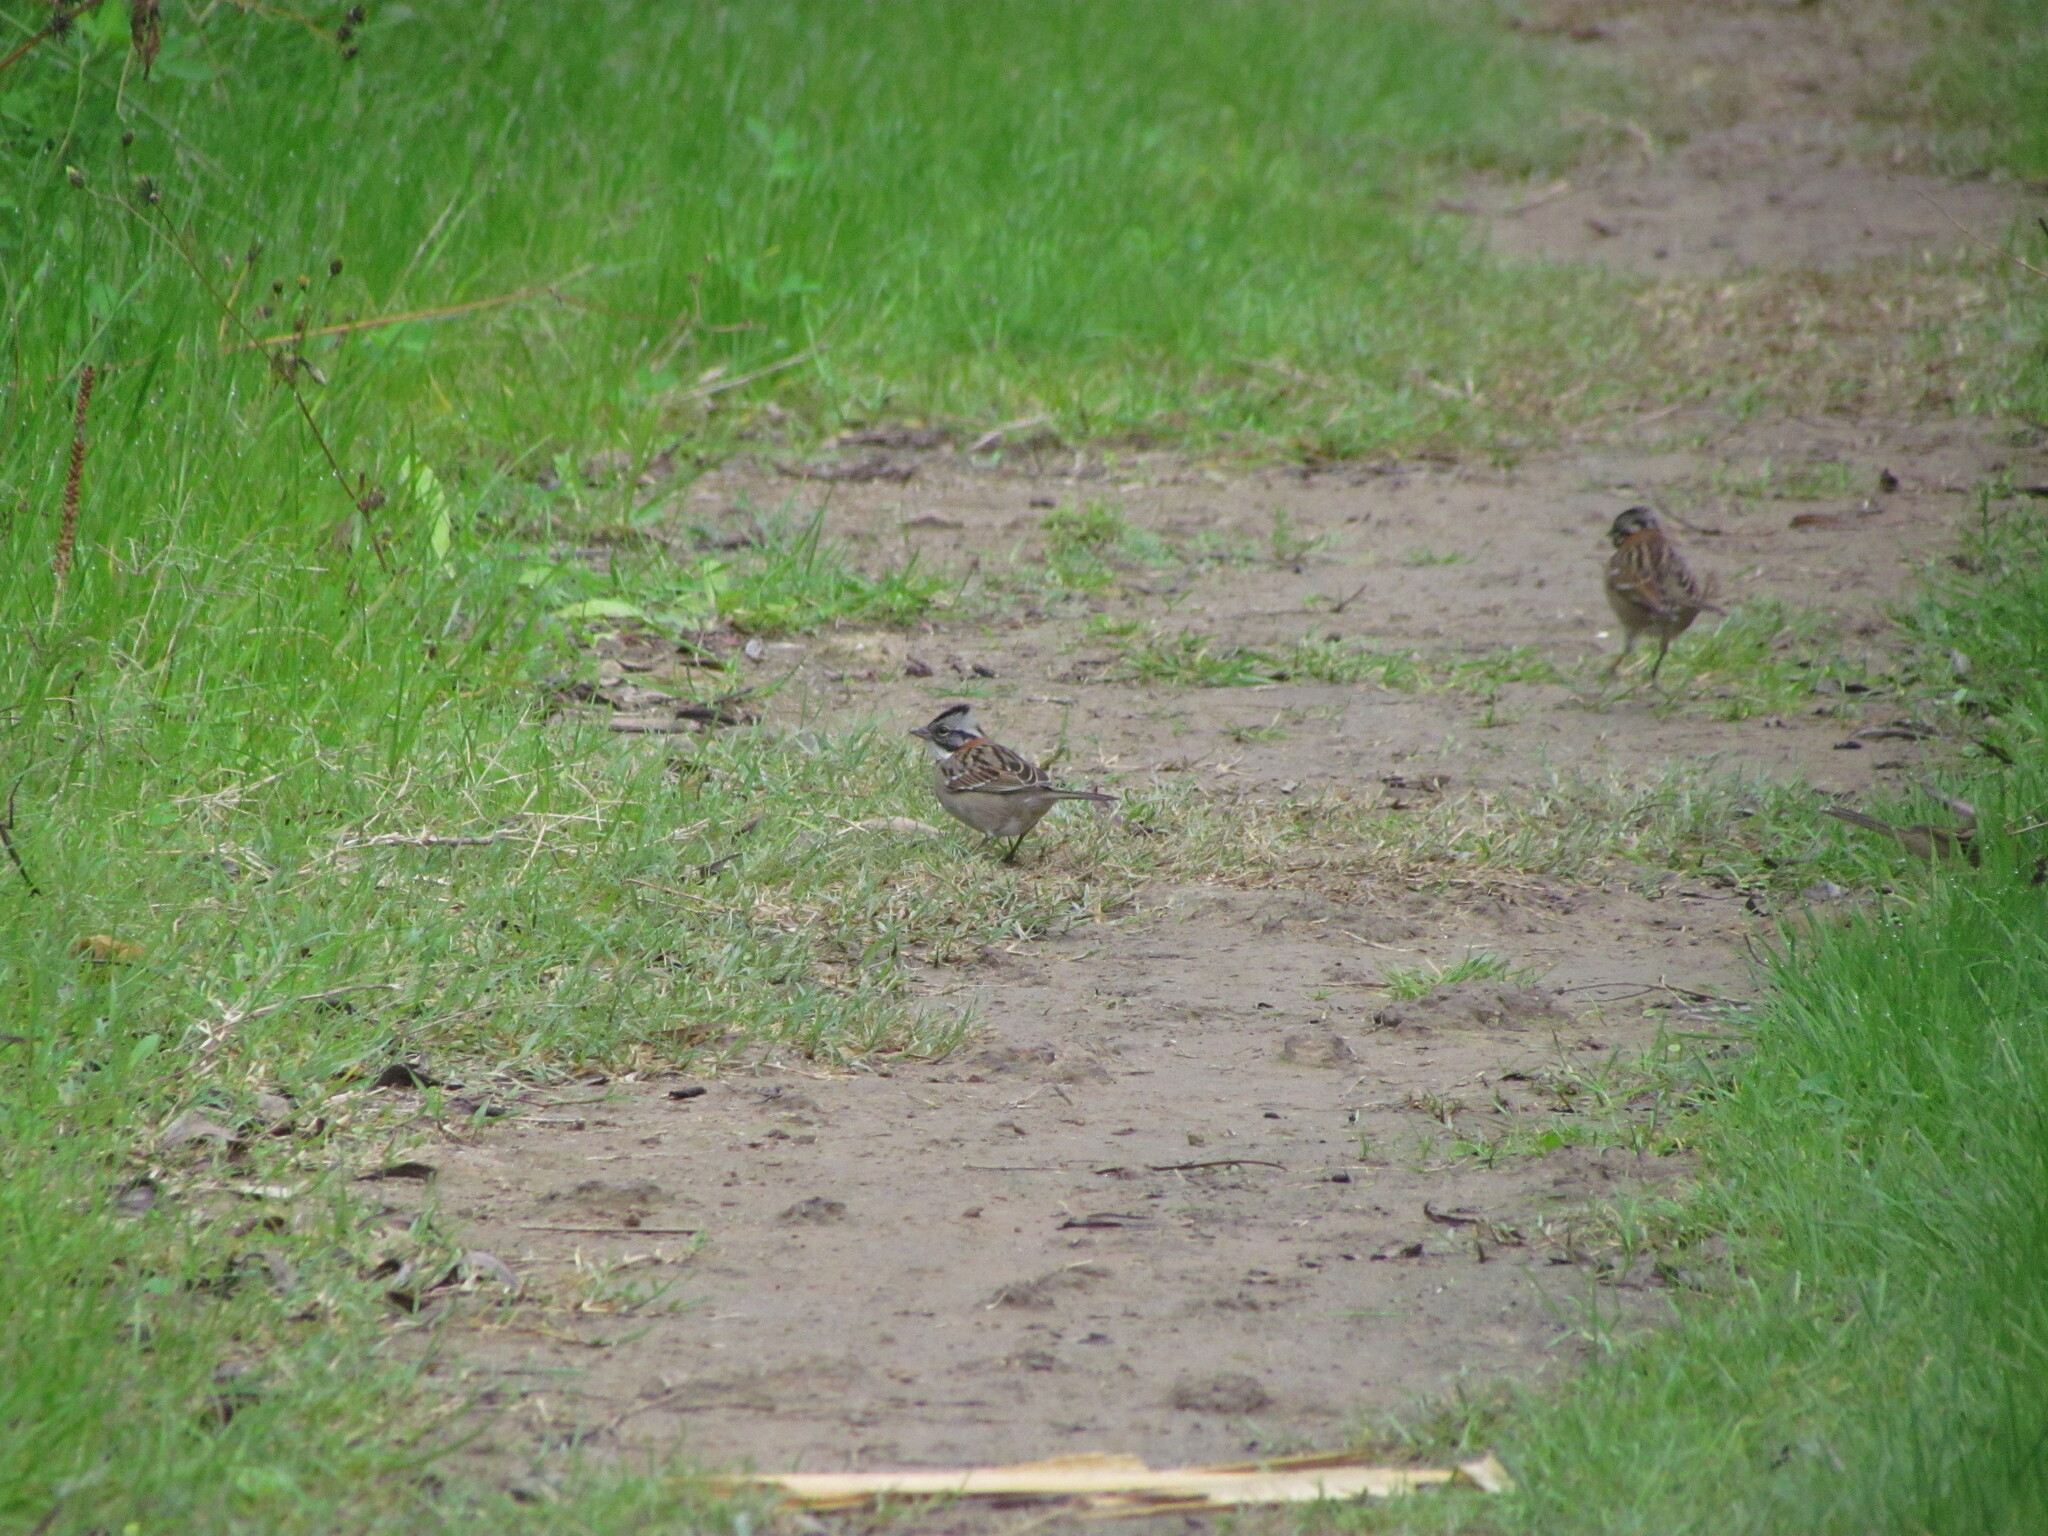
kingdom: Animalia
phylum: Chordata
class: Aves
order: Passeriformes
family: Passerellidae
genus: Zonotrichia
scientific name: Zonotrichia capensis
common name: Rufous-collared sparrow
